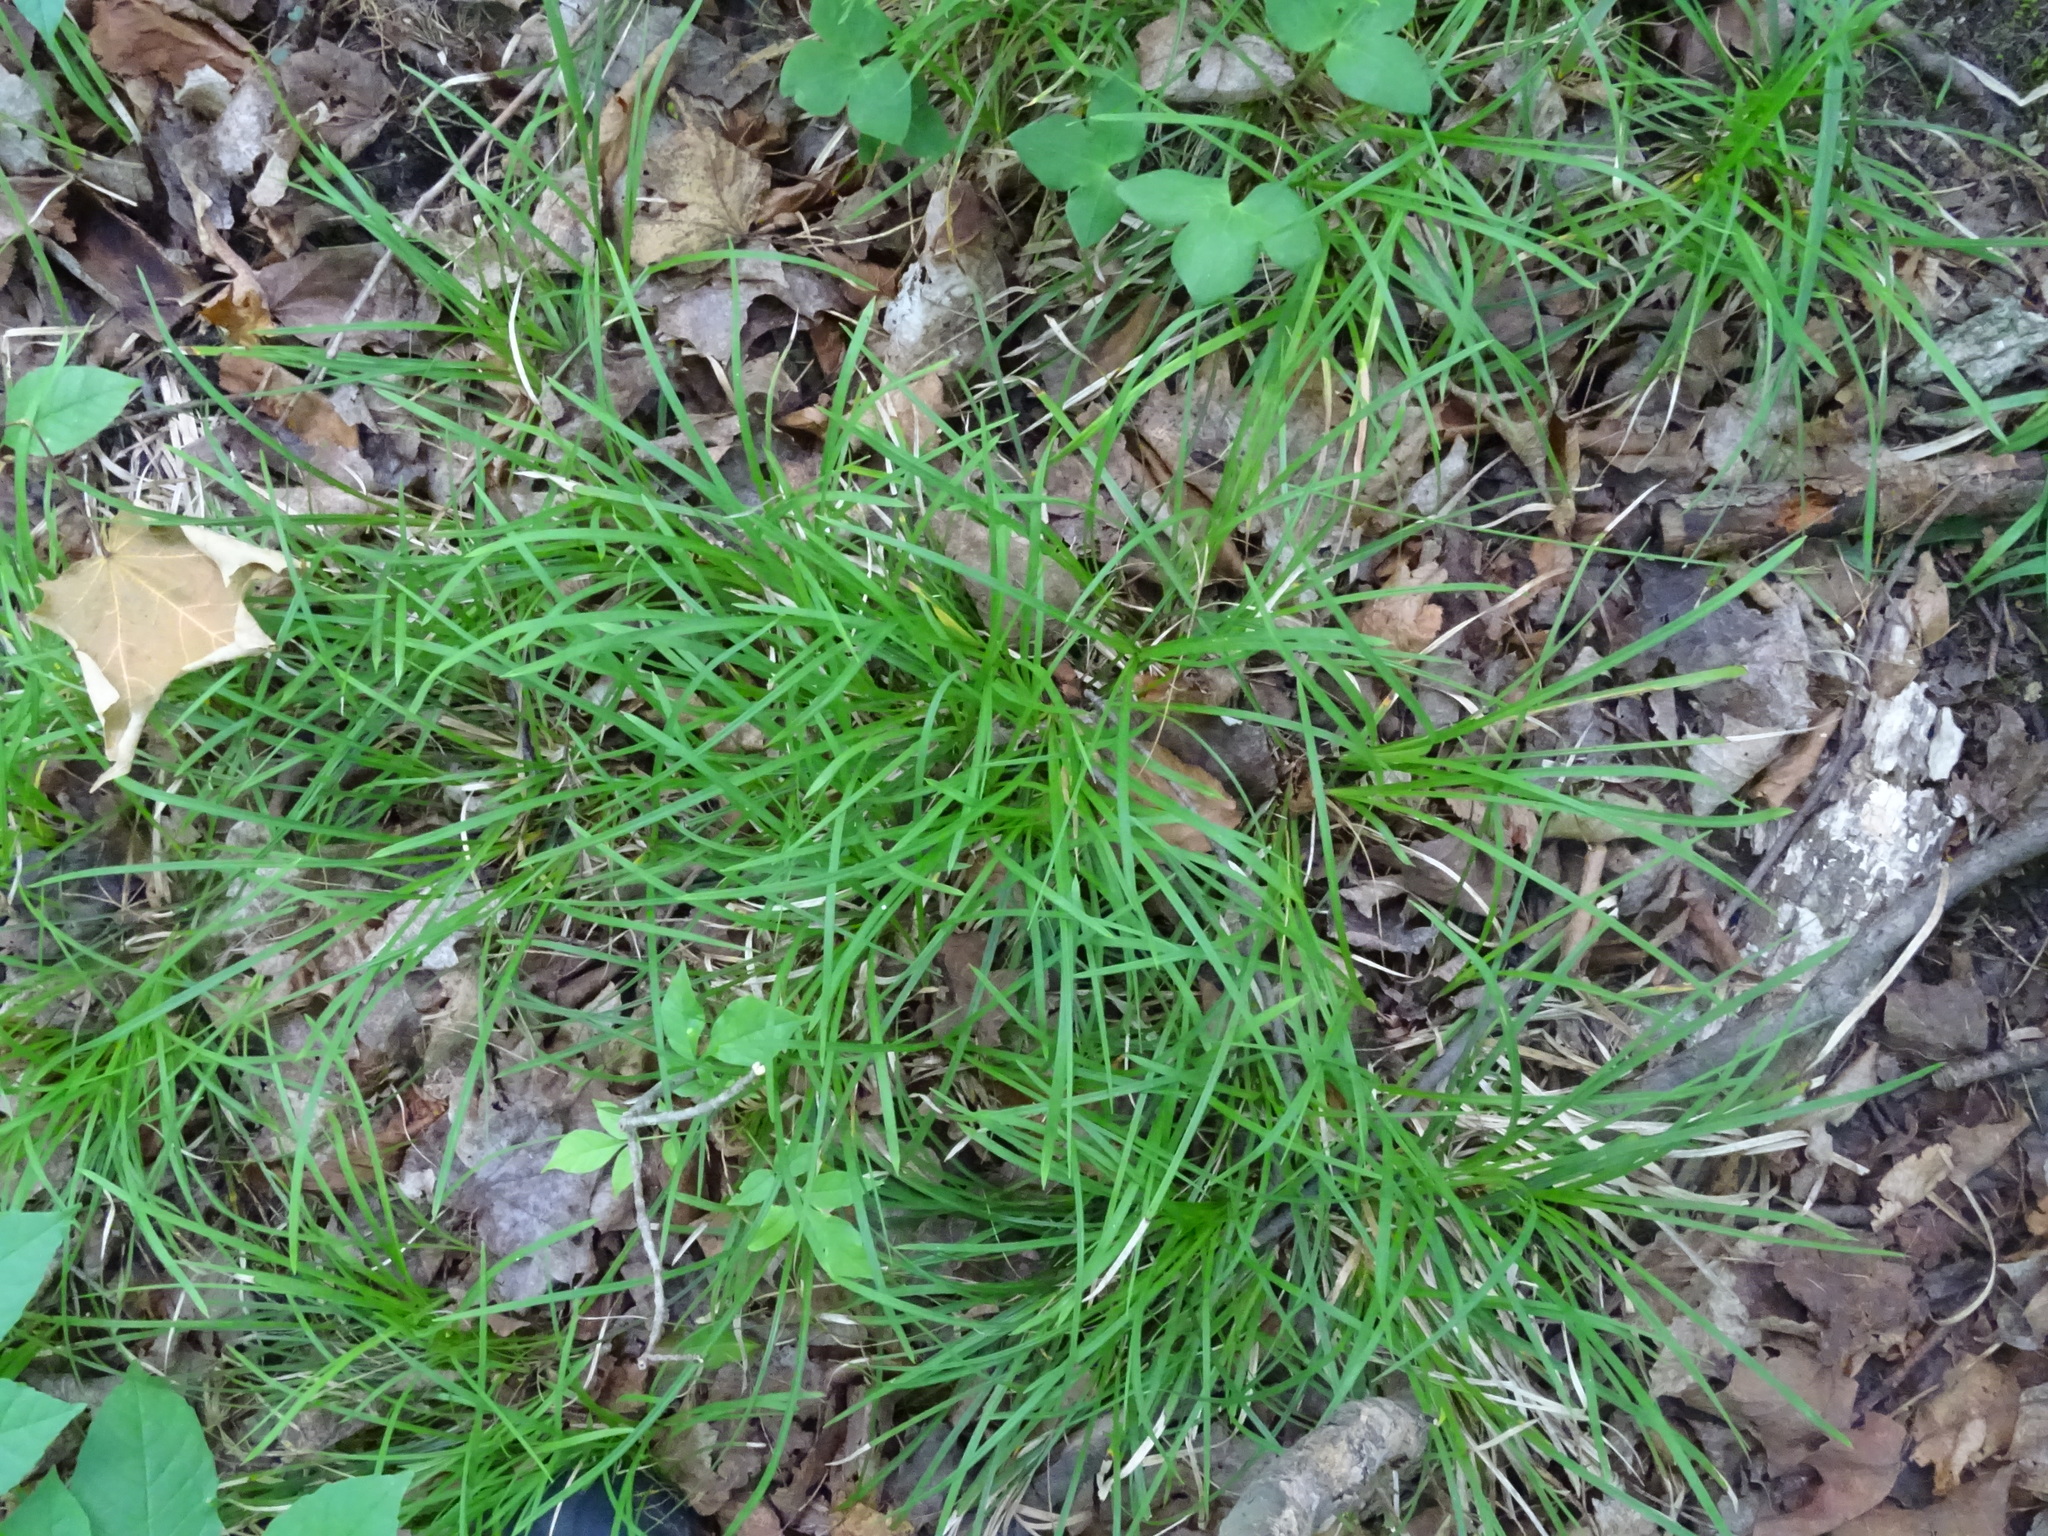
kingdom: Plantae
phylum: Tracheophyta
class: Liliopsida
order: Poales
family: Cyperaceae
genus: Carex
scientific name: Carex pedunculata
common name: Pedunculate sedge
